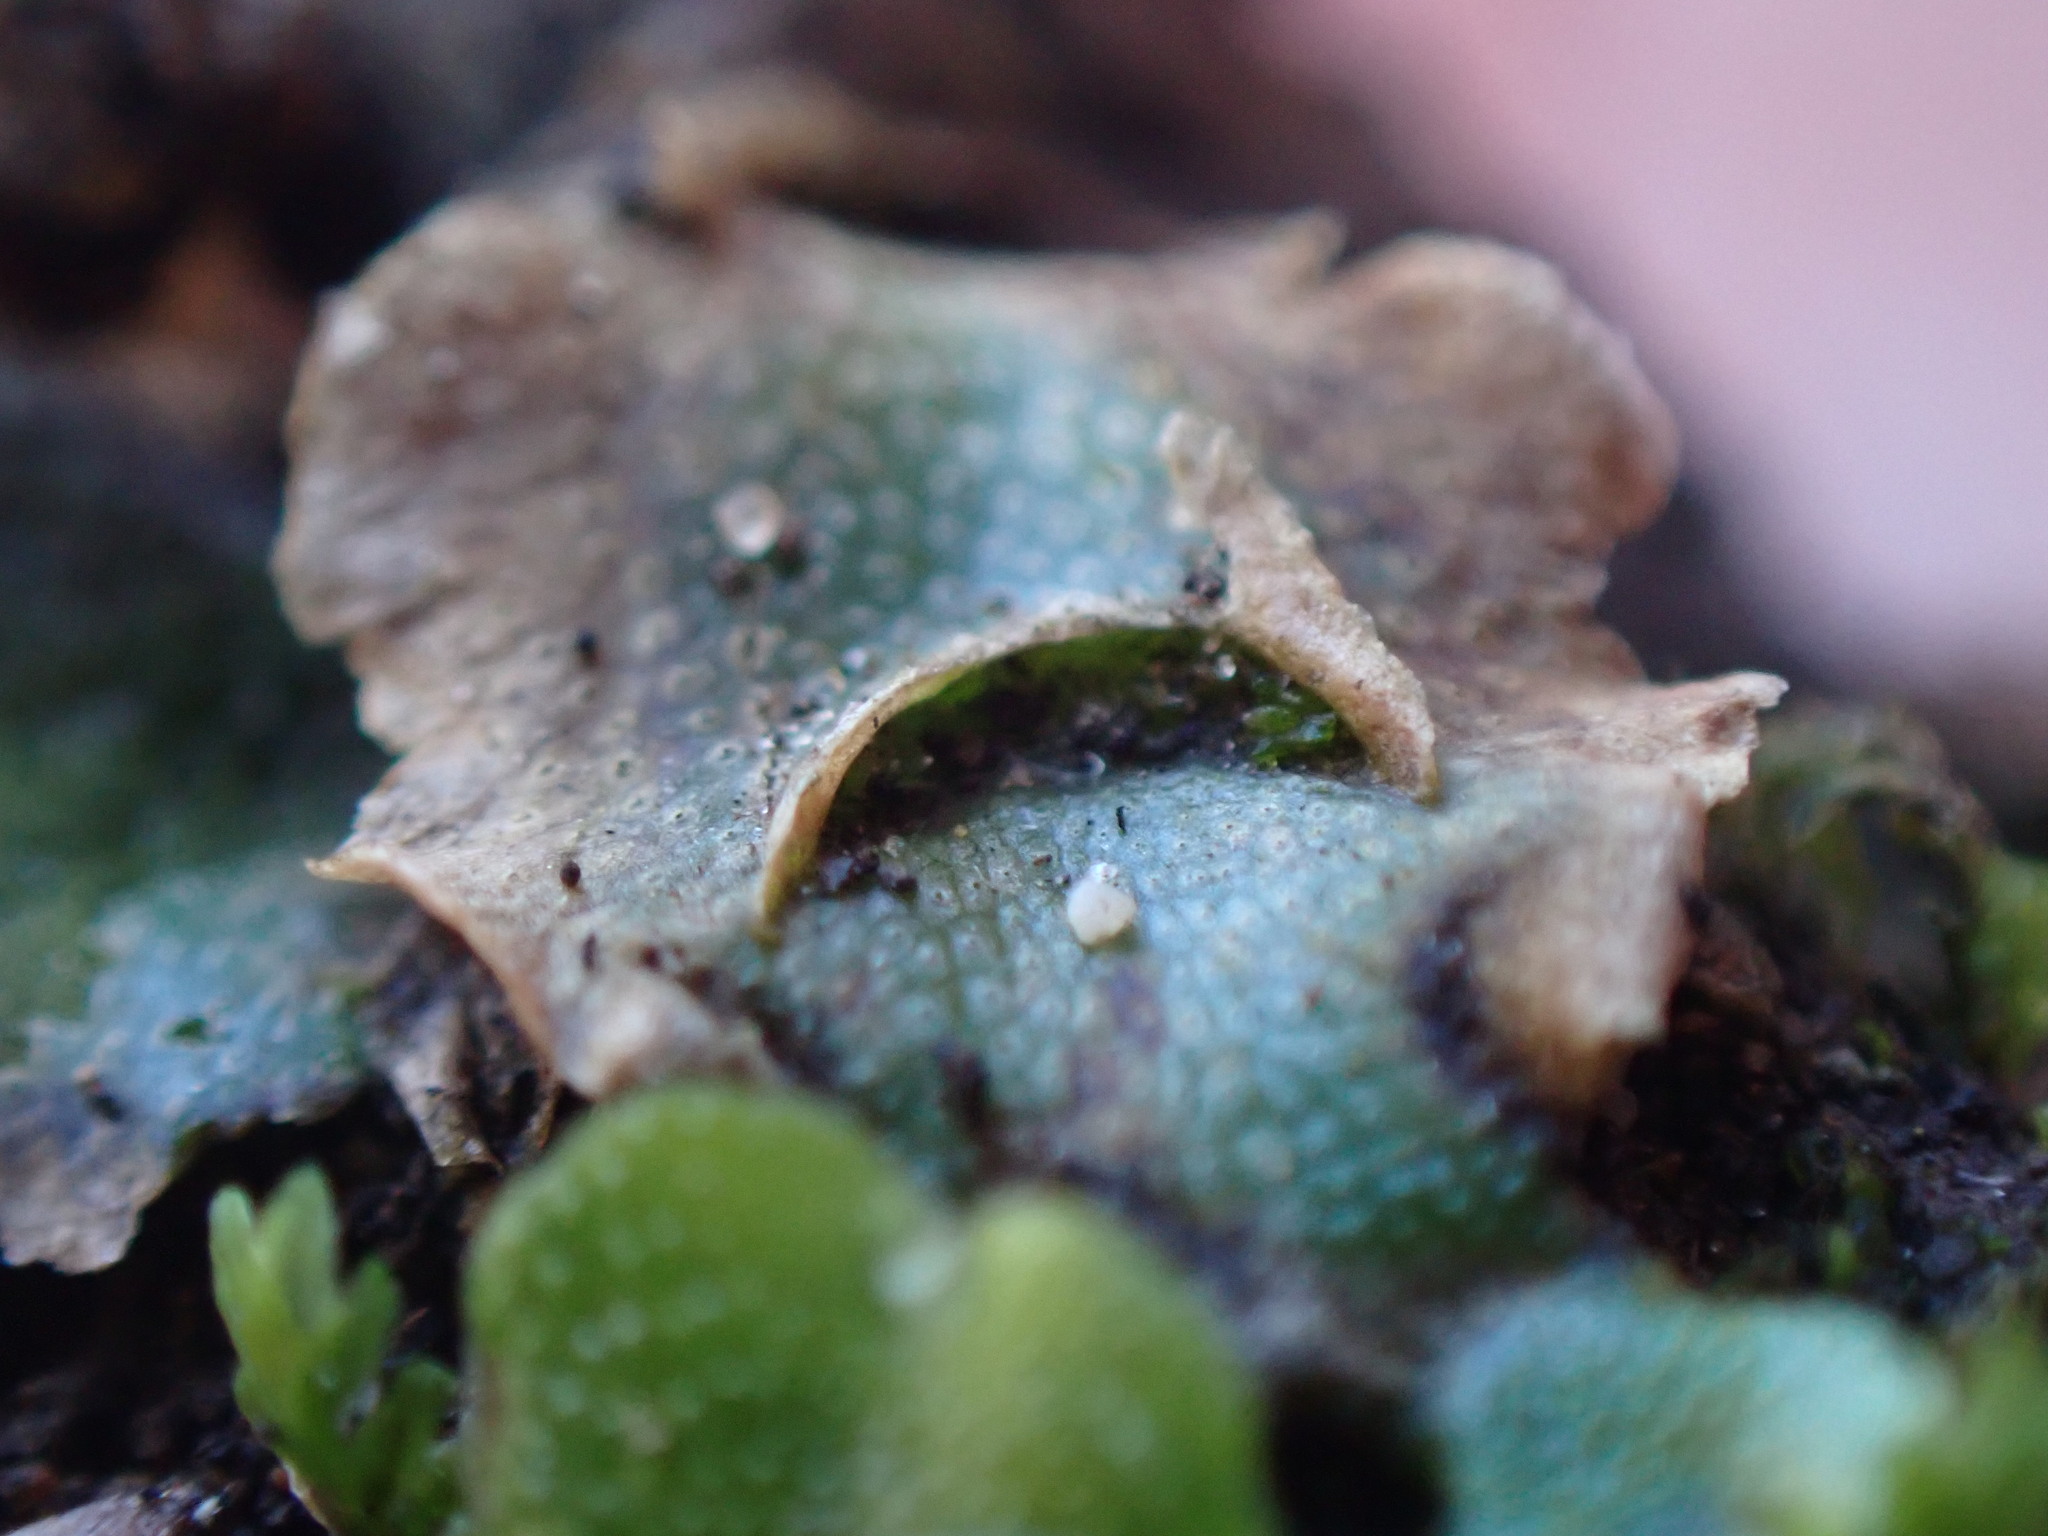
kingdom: Plantae
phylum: Marchantiophyta
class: Marchantiopsida
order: Lunulariales
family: Lunulariaceae
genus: Lunularia
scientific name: Lunularia cruciata
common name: Crescent-cup liverwort
